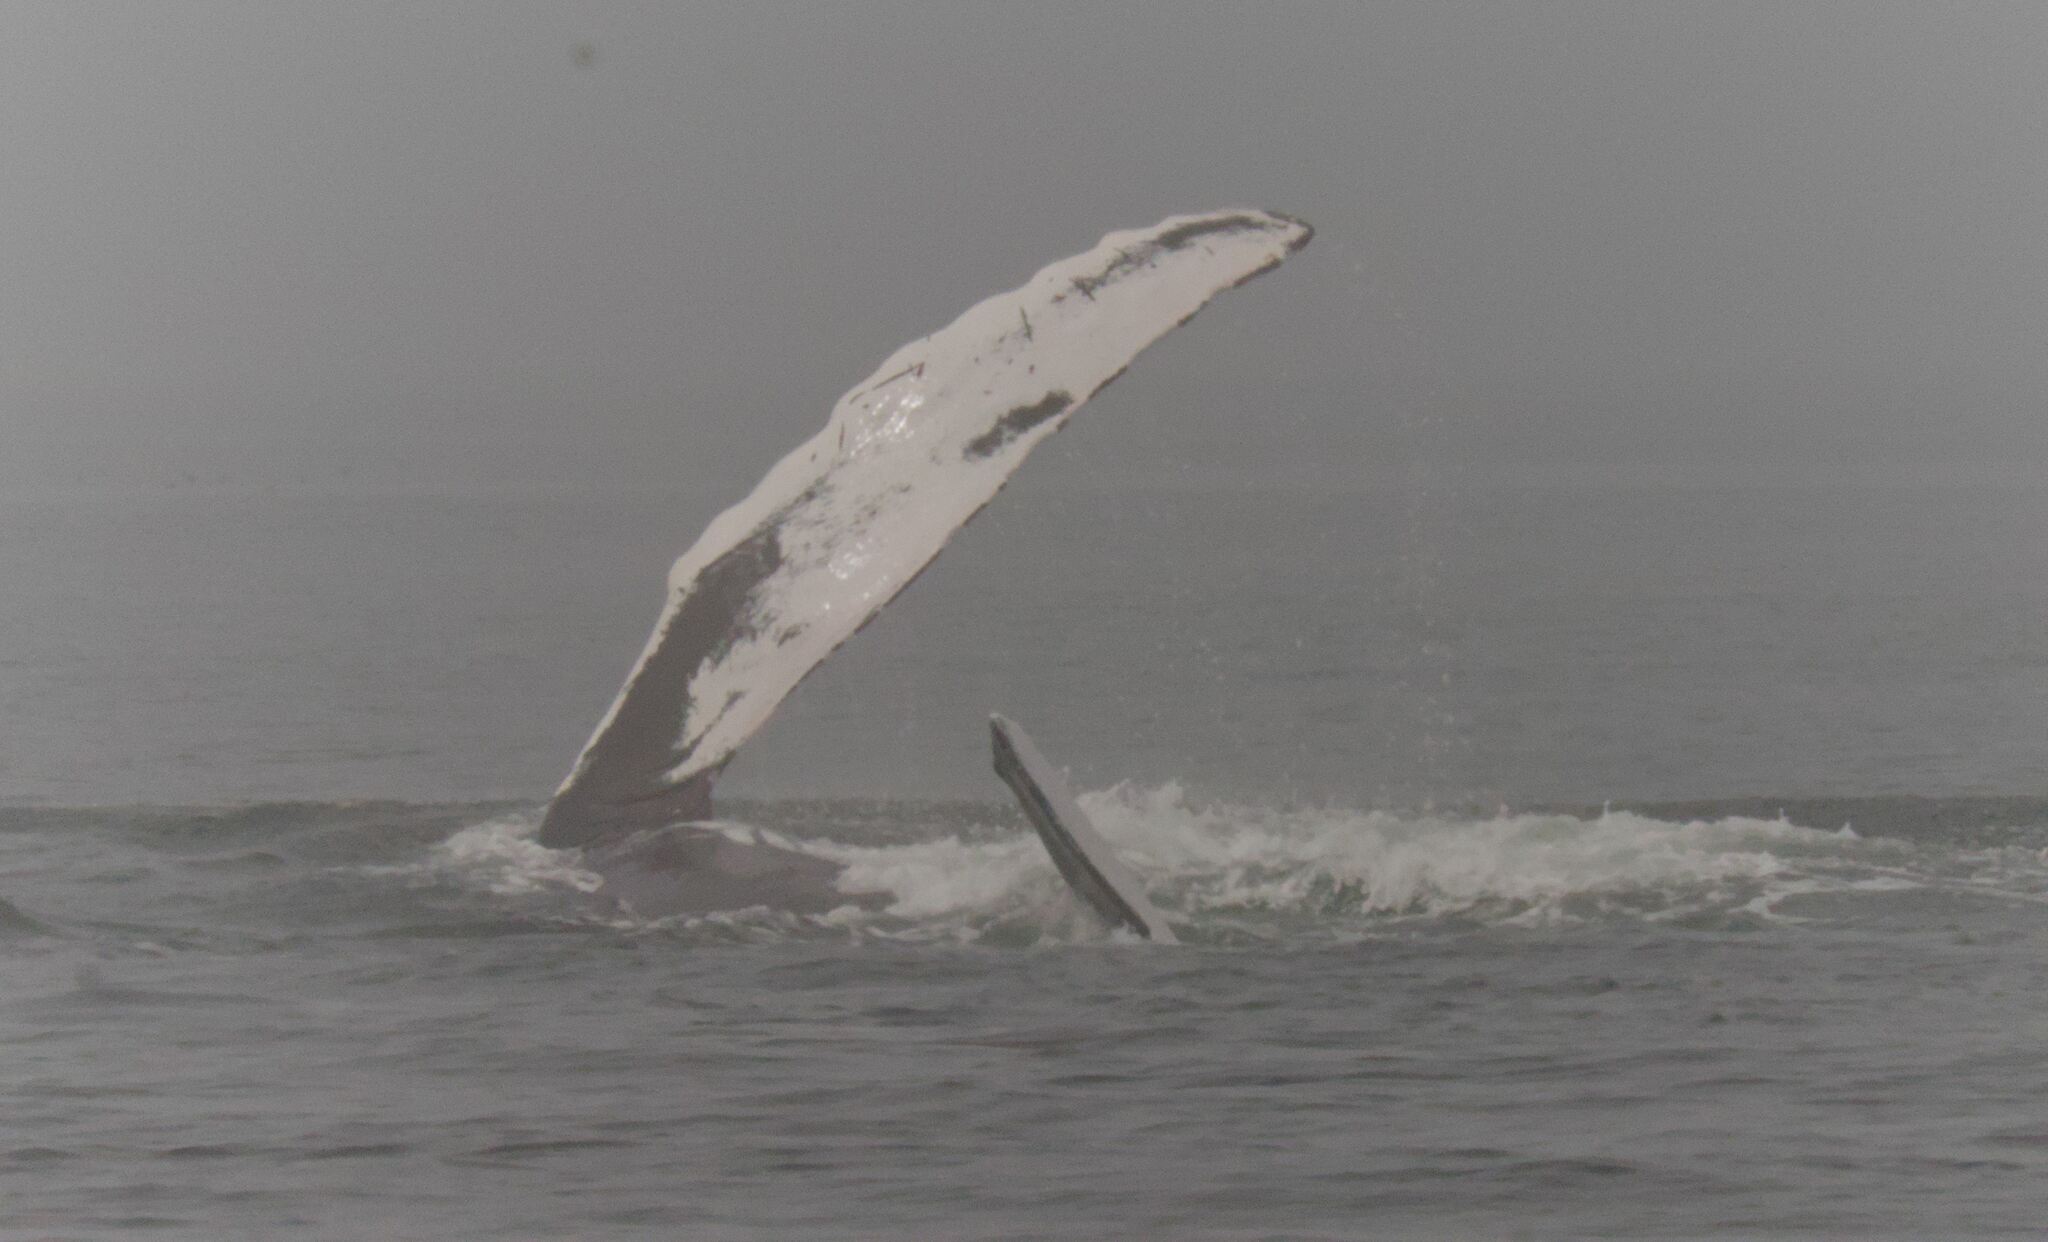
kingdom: Animalia
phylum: Chordata
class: Mammalia
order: Cetacea
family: Balaenopteridae
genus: Megaptera
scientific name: Megaptera novaeangliae
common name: Humpback whale
